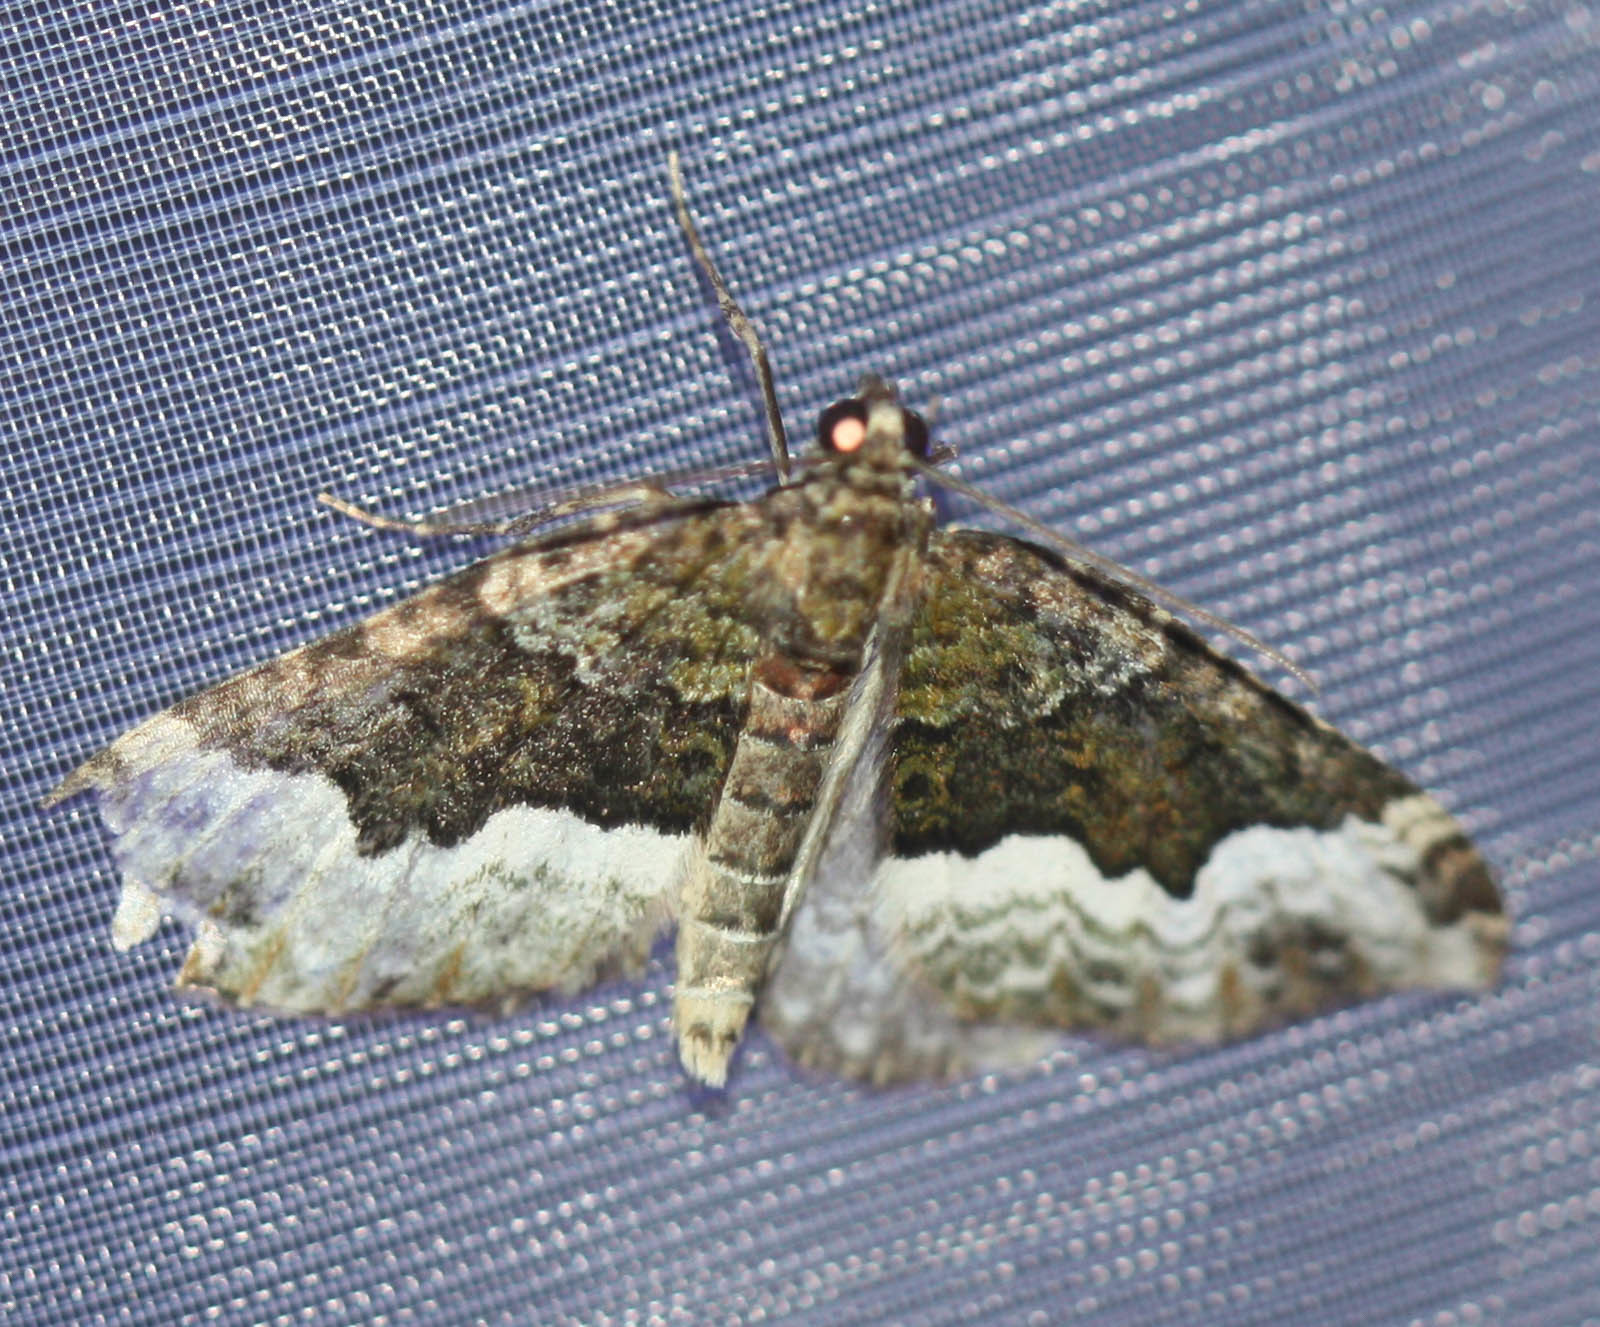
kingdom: Animalia
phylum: Arthropoda
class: Insecta
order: Lepidoptera
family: Geometridae
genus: Euphyia
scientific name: Euphyia biangulata
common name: Cloaked carpet
